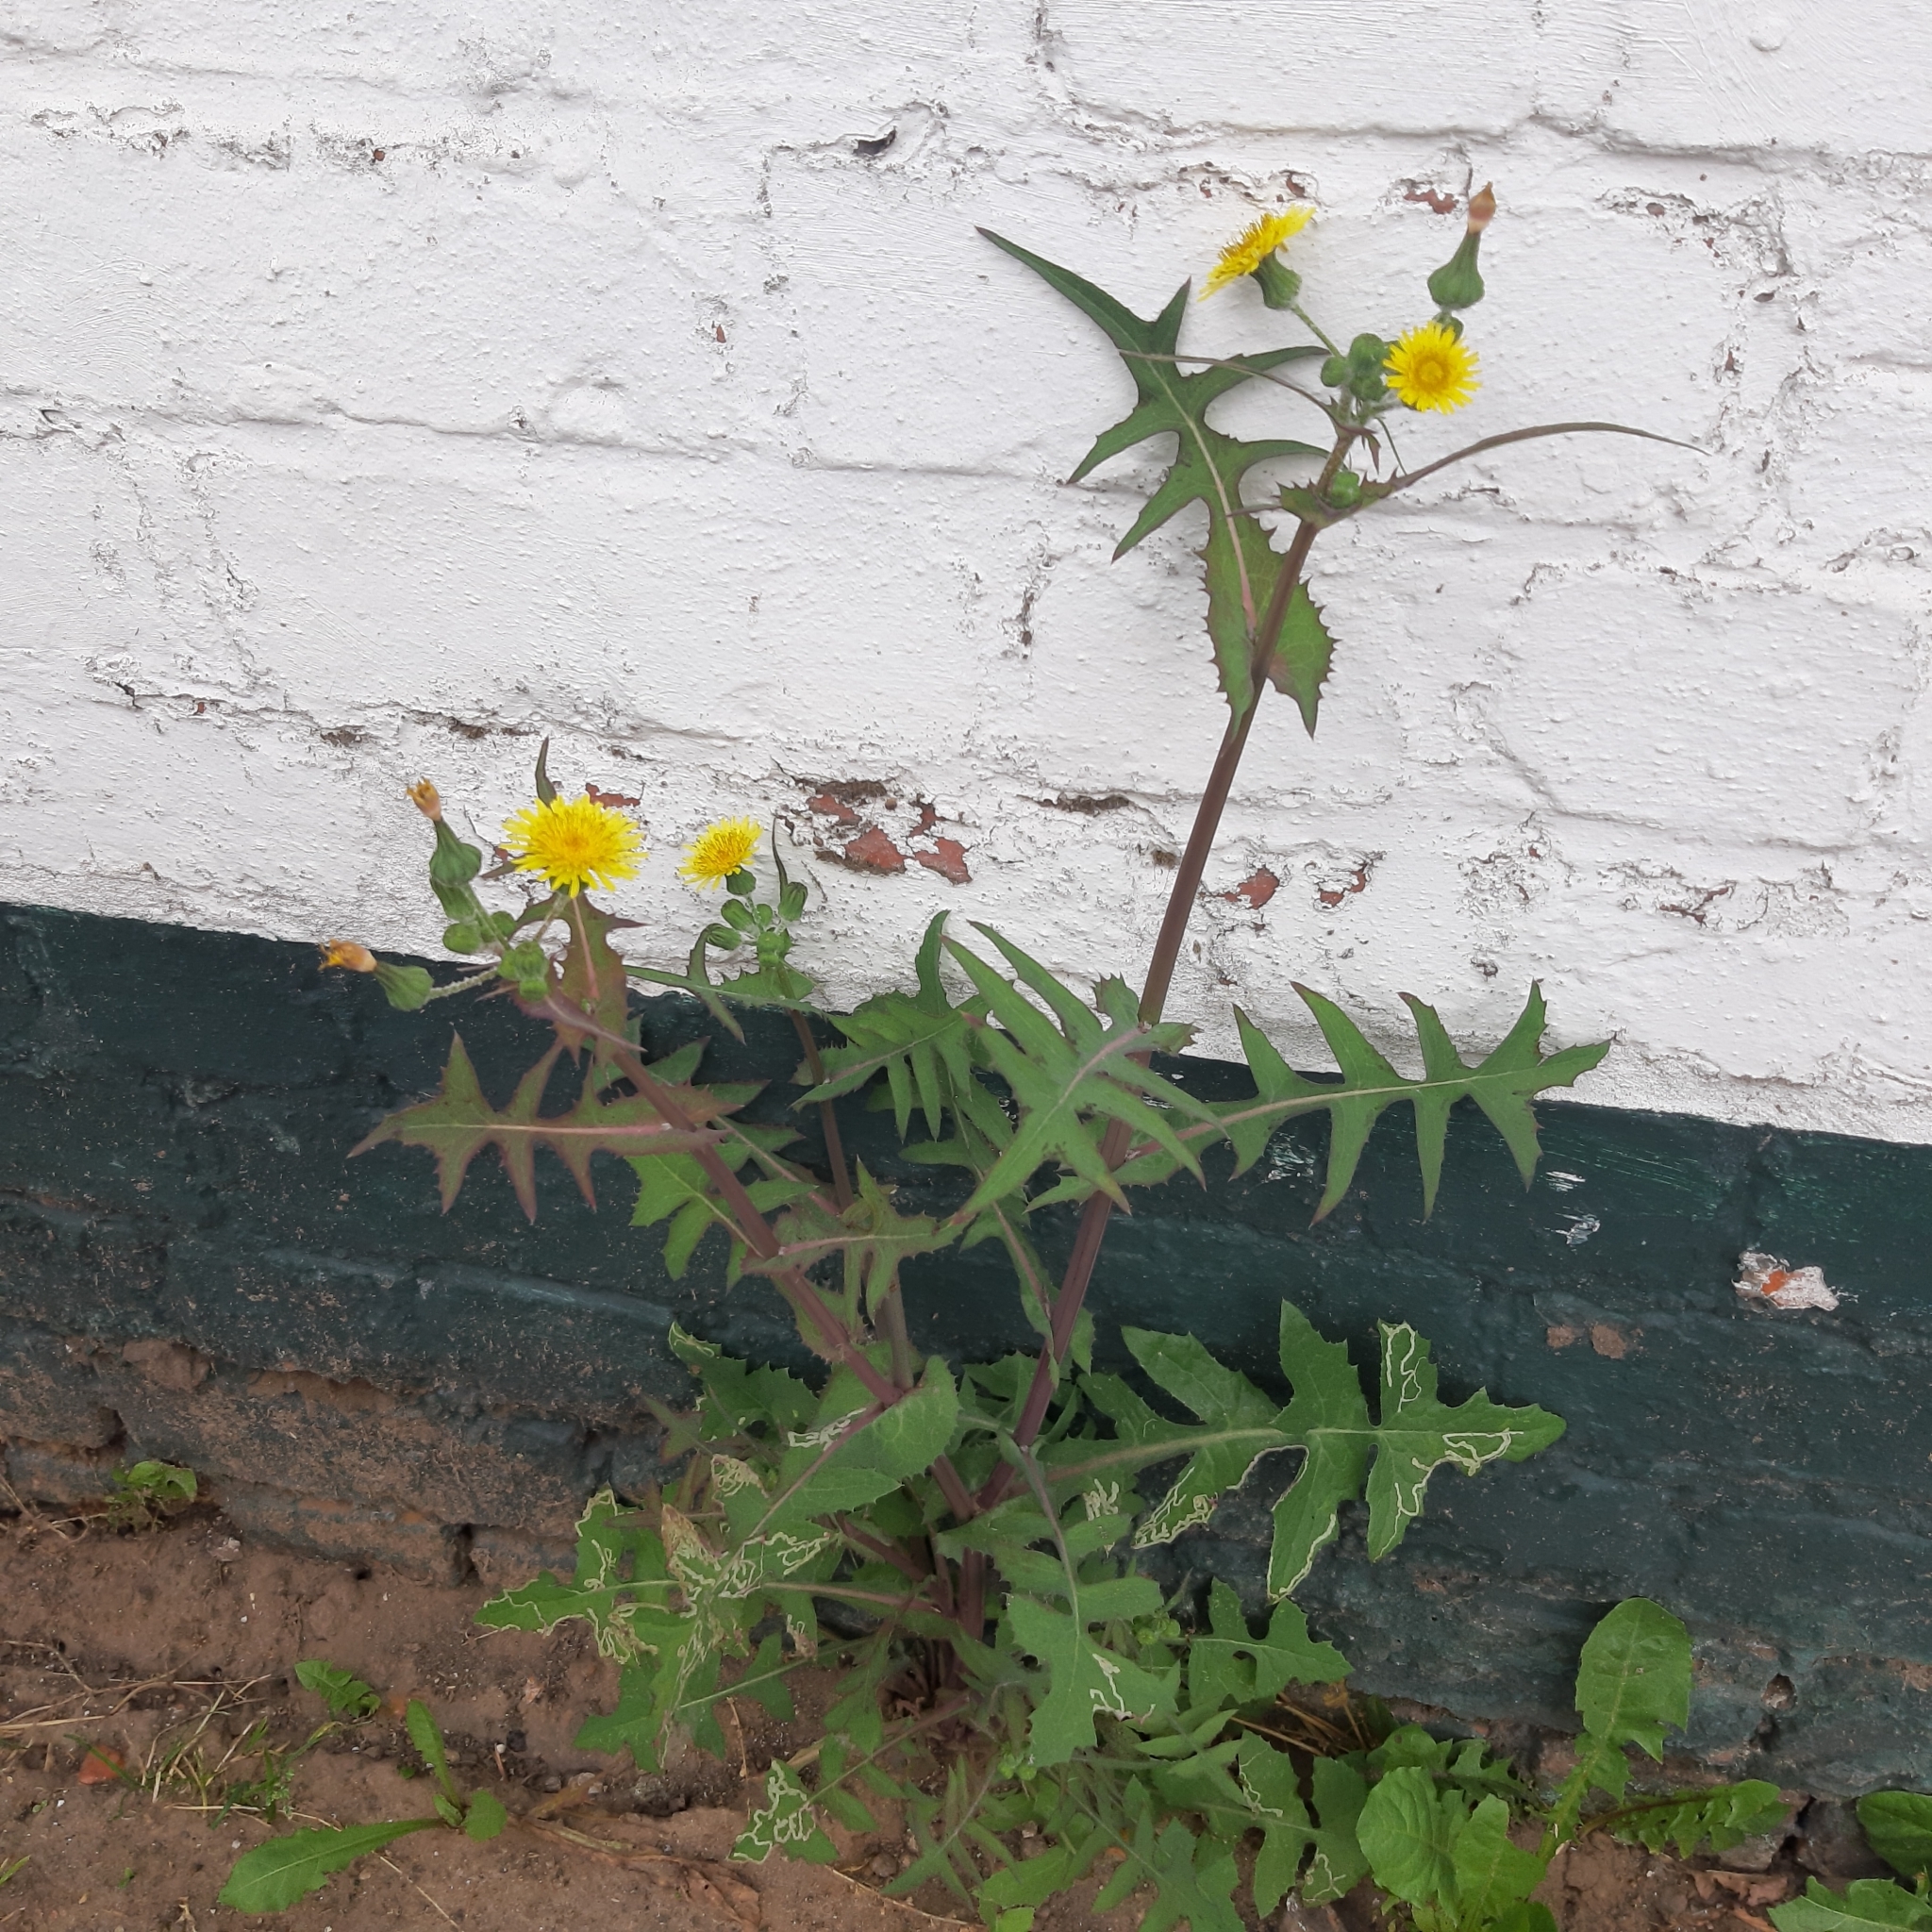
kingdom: Plantae
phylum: Tracheophyta
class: Magnoliopsida
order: Asterales
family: Asteraceae
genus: Sonchus
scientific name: Sonchus oleraceus
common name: Common sowthistle
